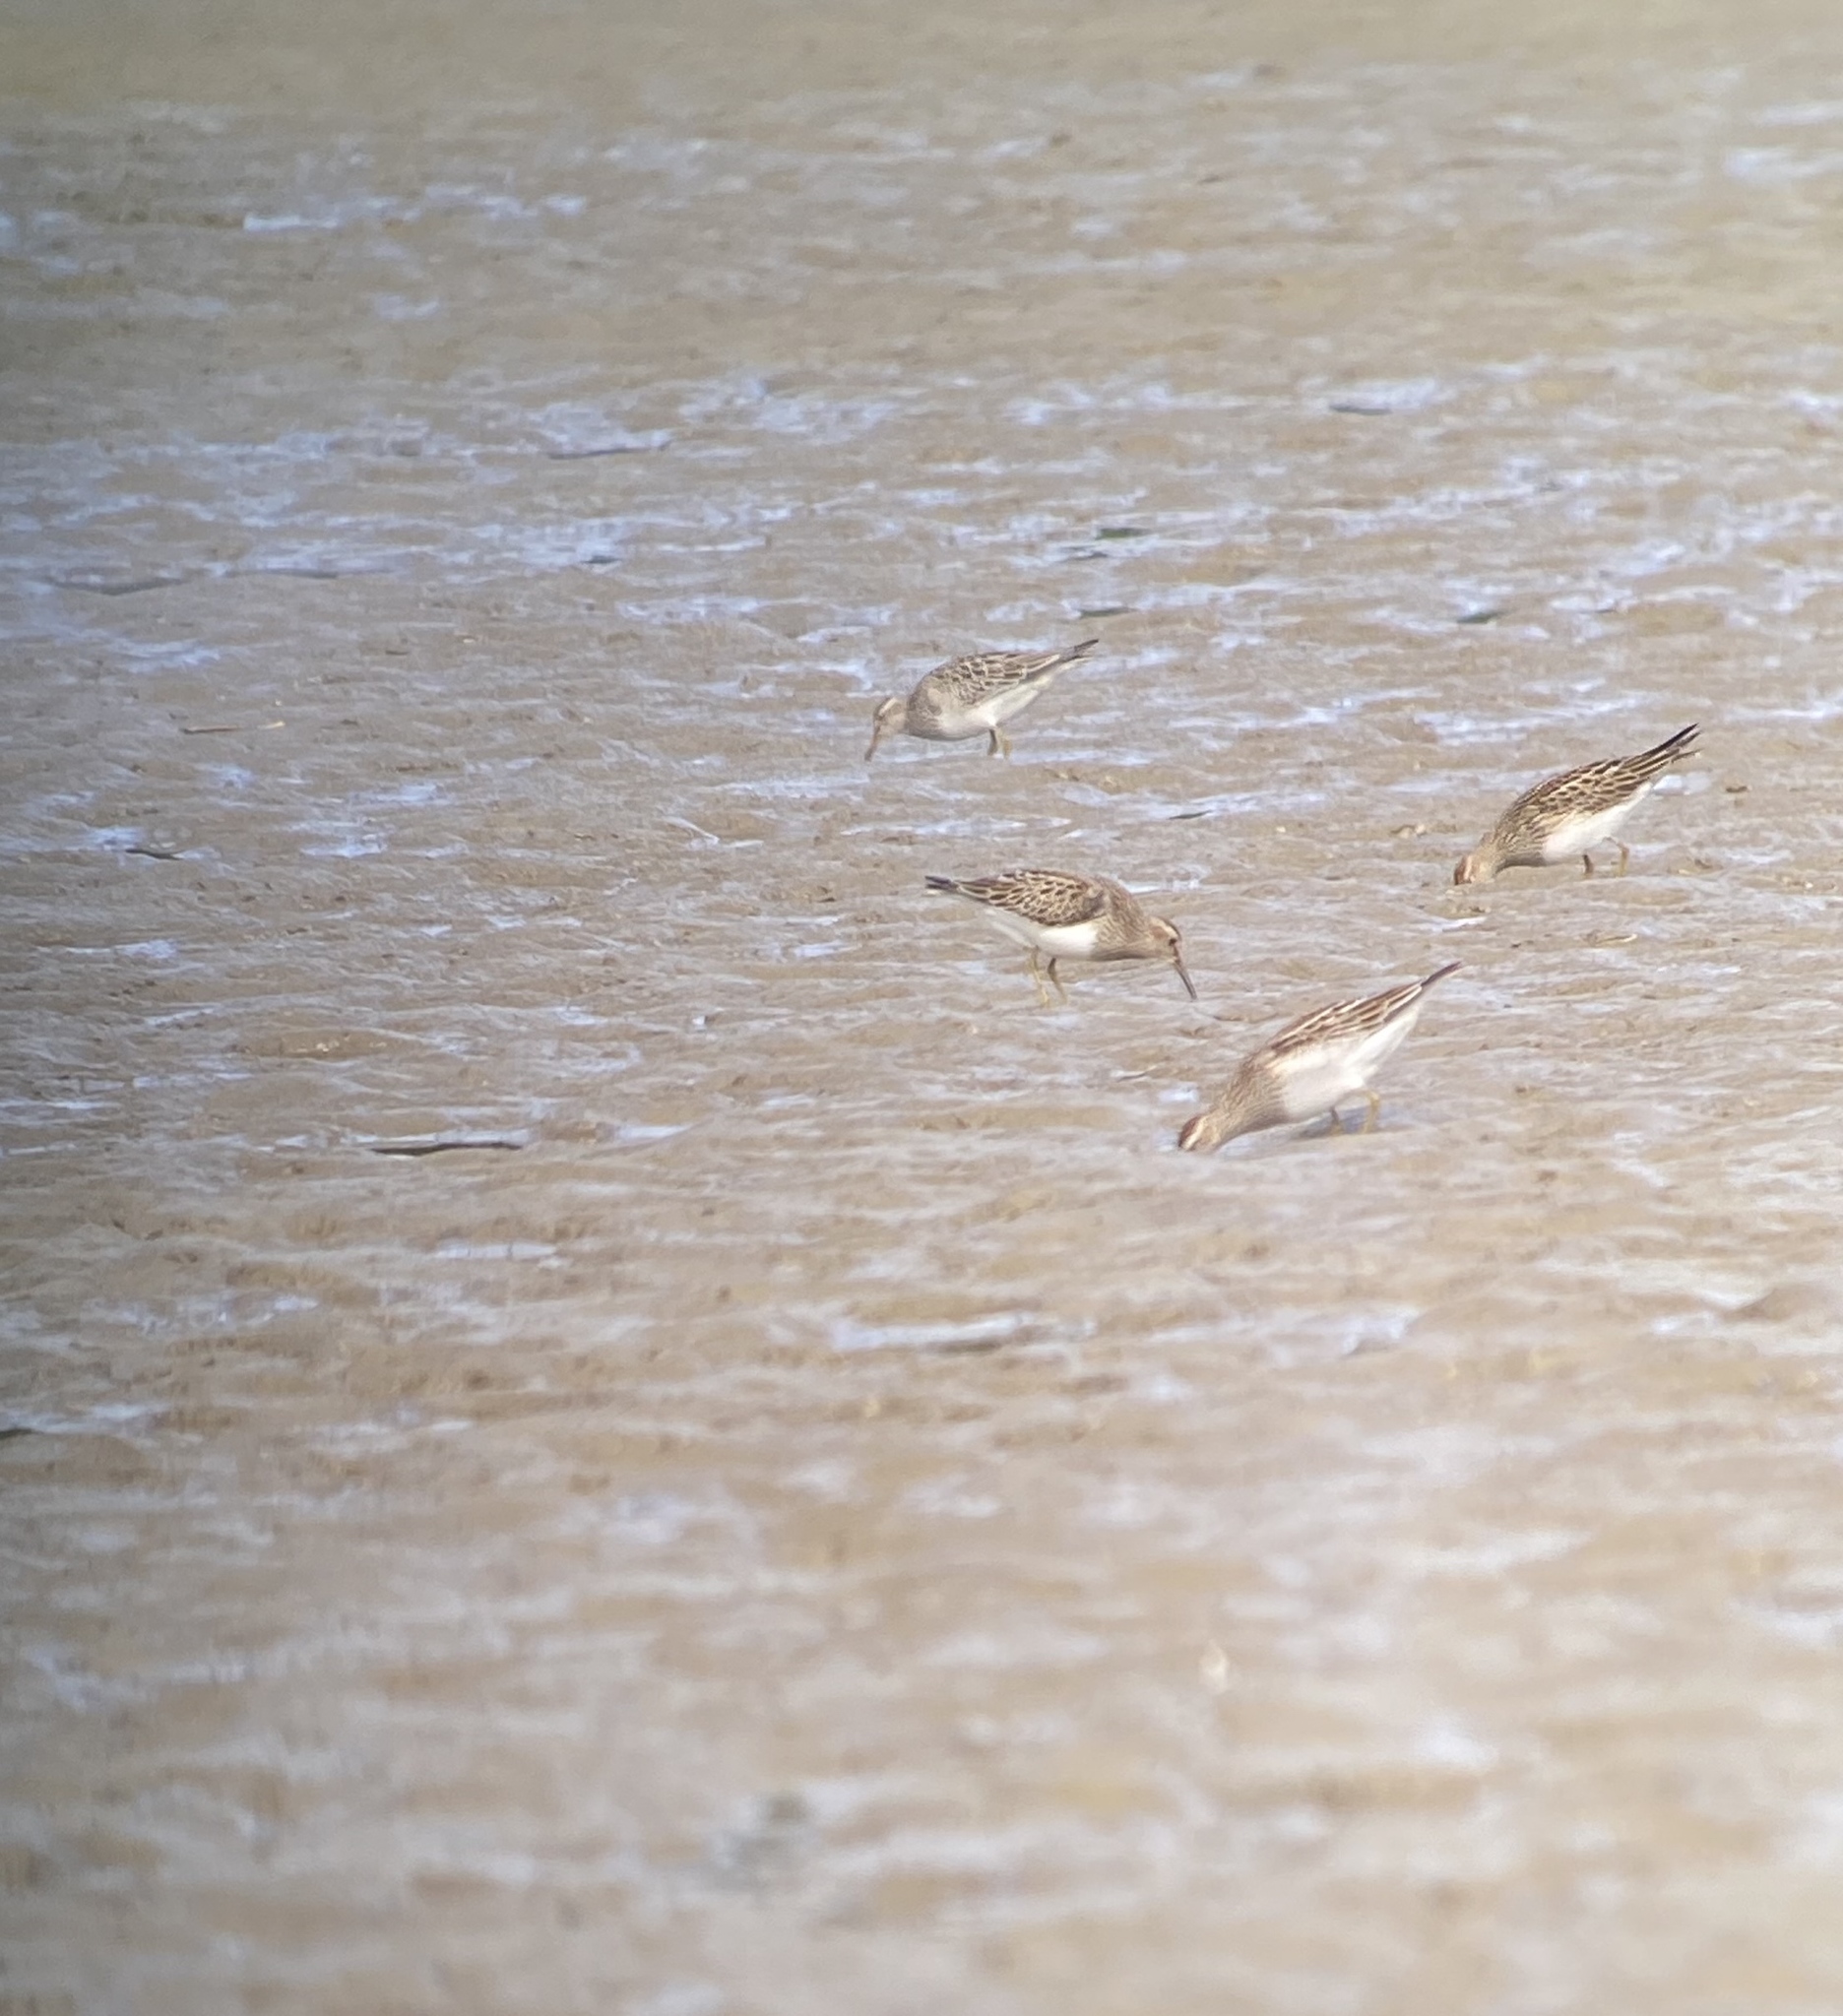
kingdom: Animalia
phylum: Chordata
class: Aves
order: Charadriiformes
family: Scolopacidae
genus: Calidris
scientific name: Calidris melanotos
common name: Pectoral sandpiper
